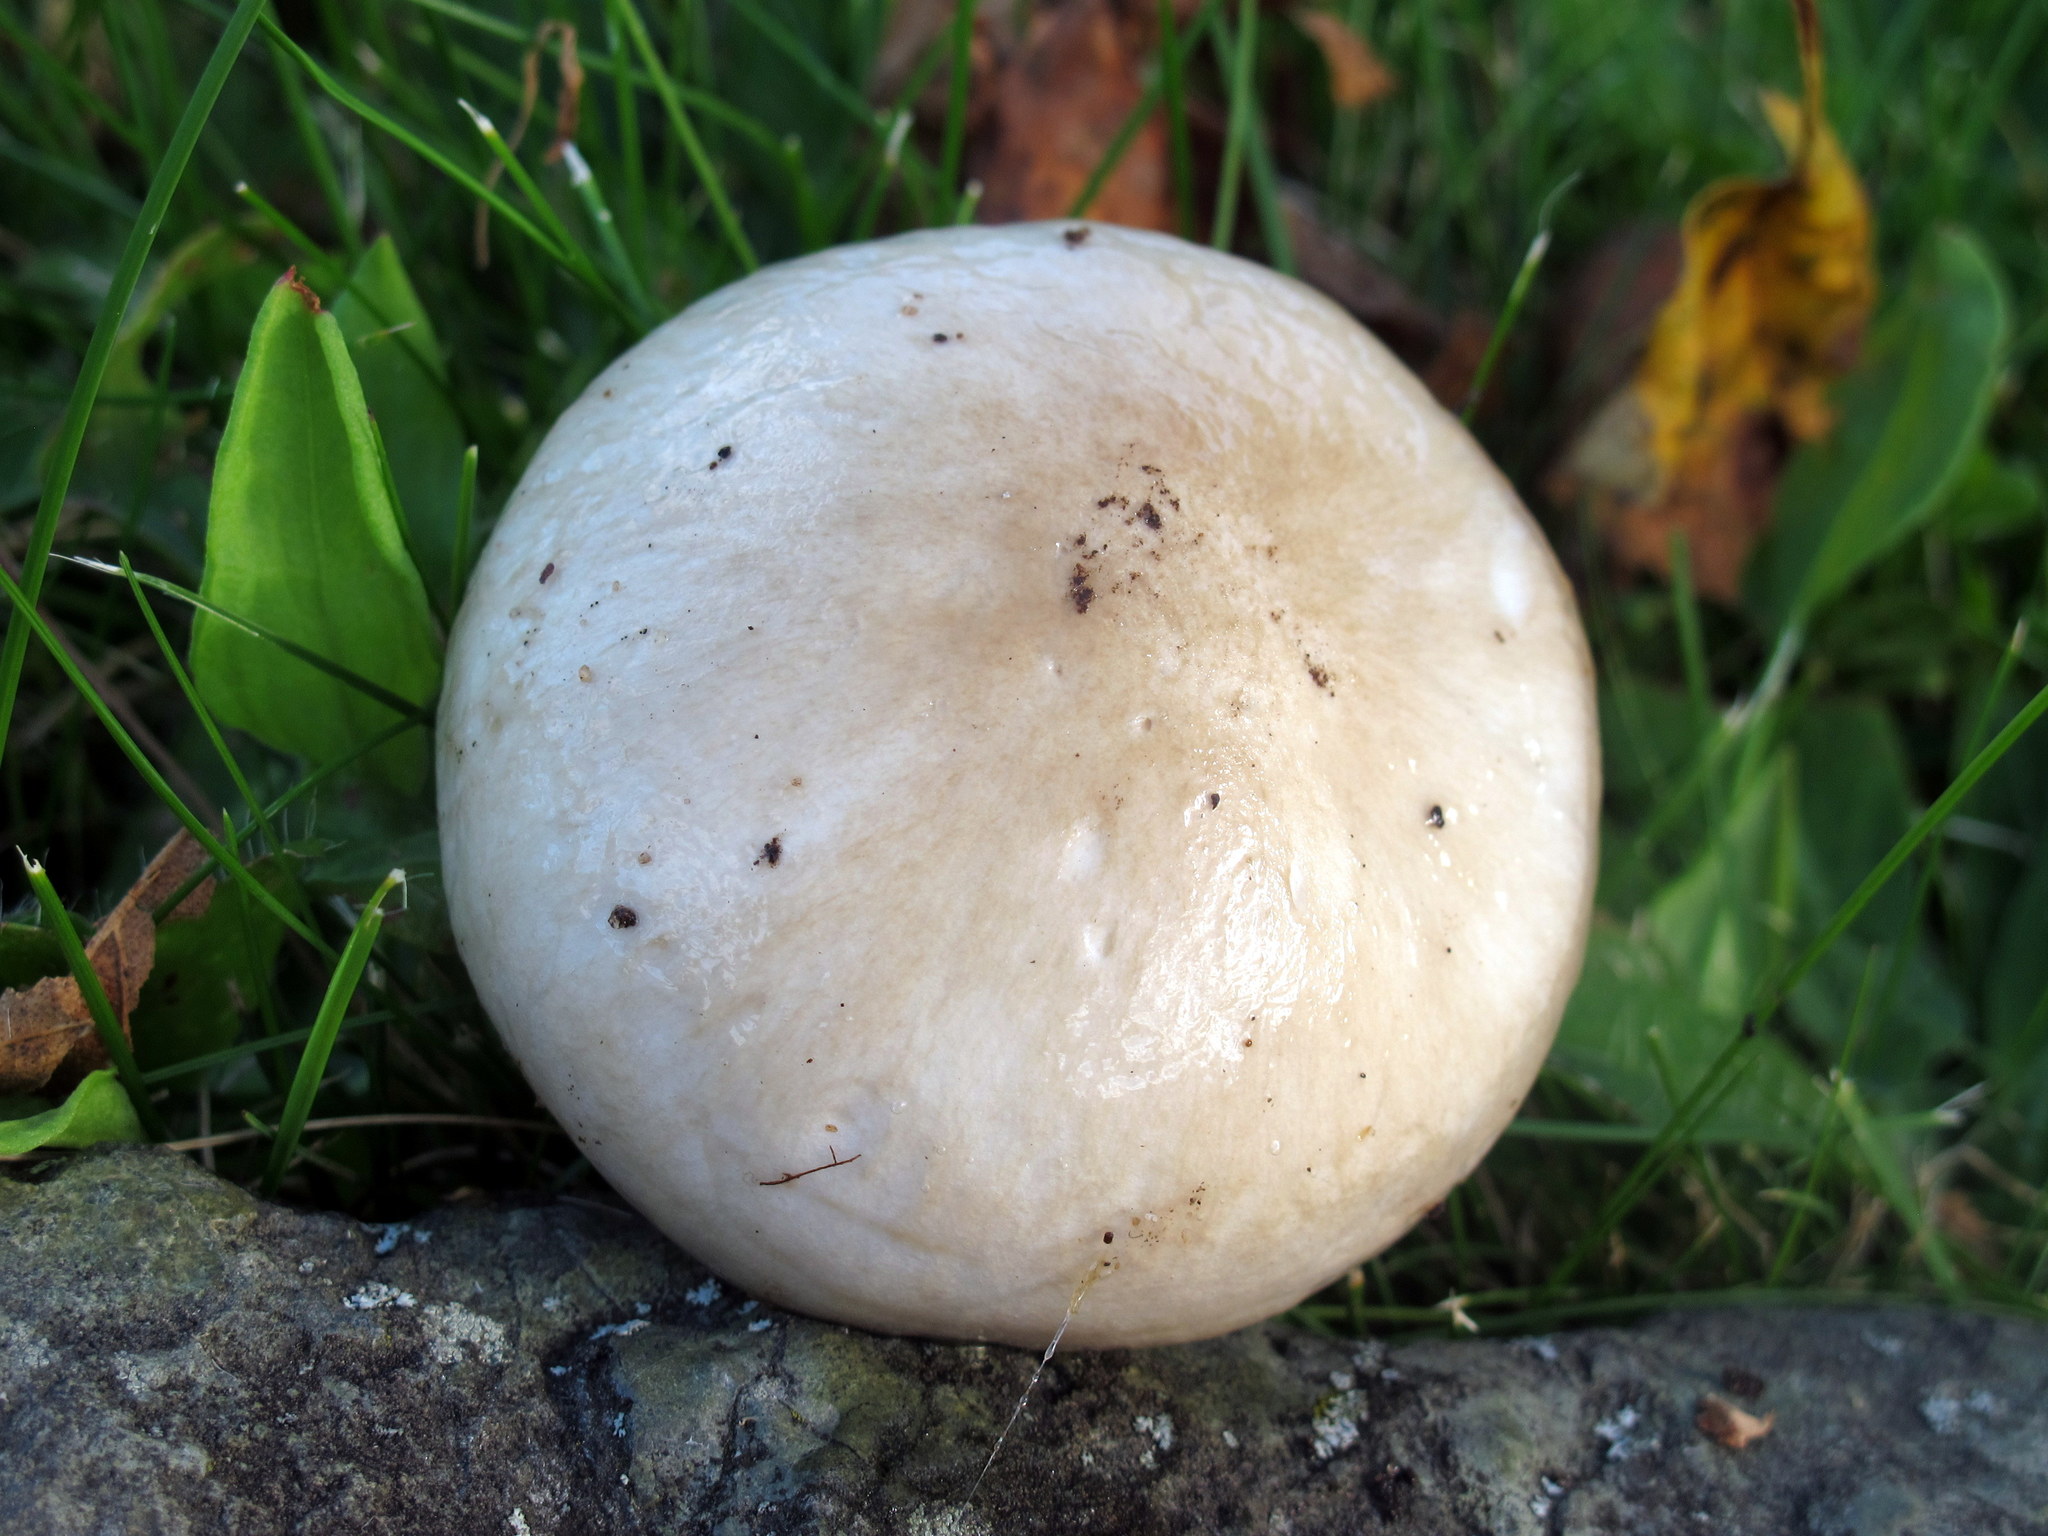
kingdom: Fungi
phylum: Basidiomycota
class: Agaricomycetes
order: Agaricales
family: Hygrophoraceae
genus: Hygrophorus
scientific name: Hygrophorus glutinosus
